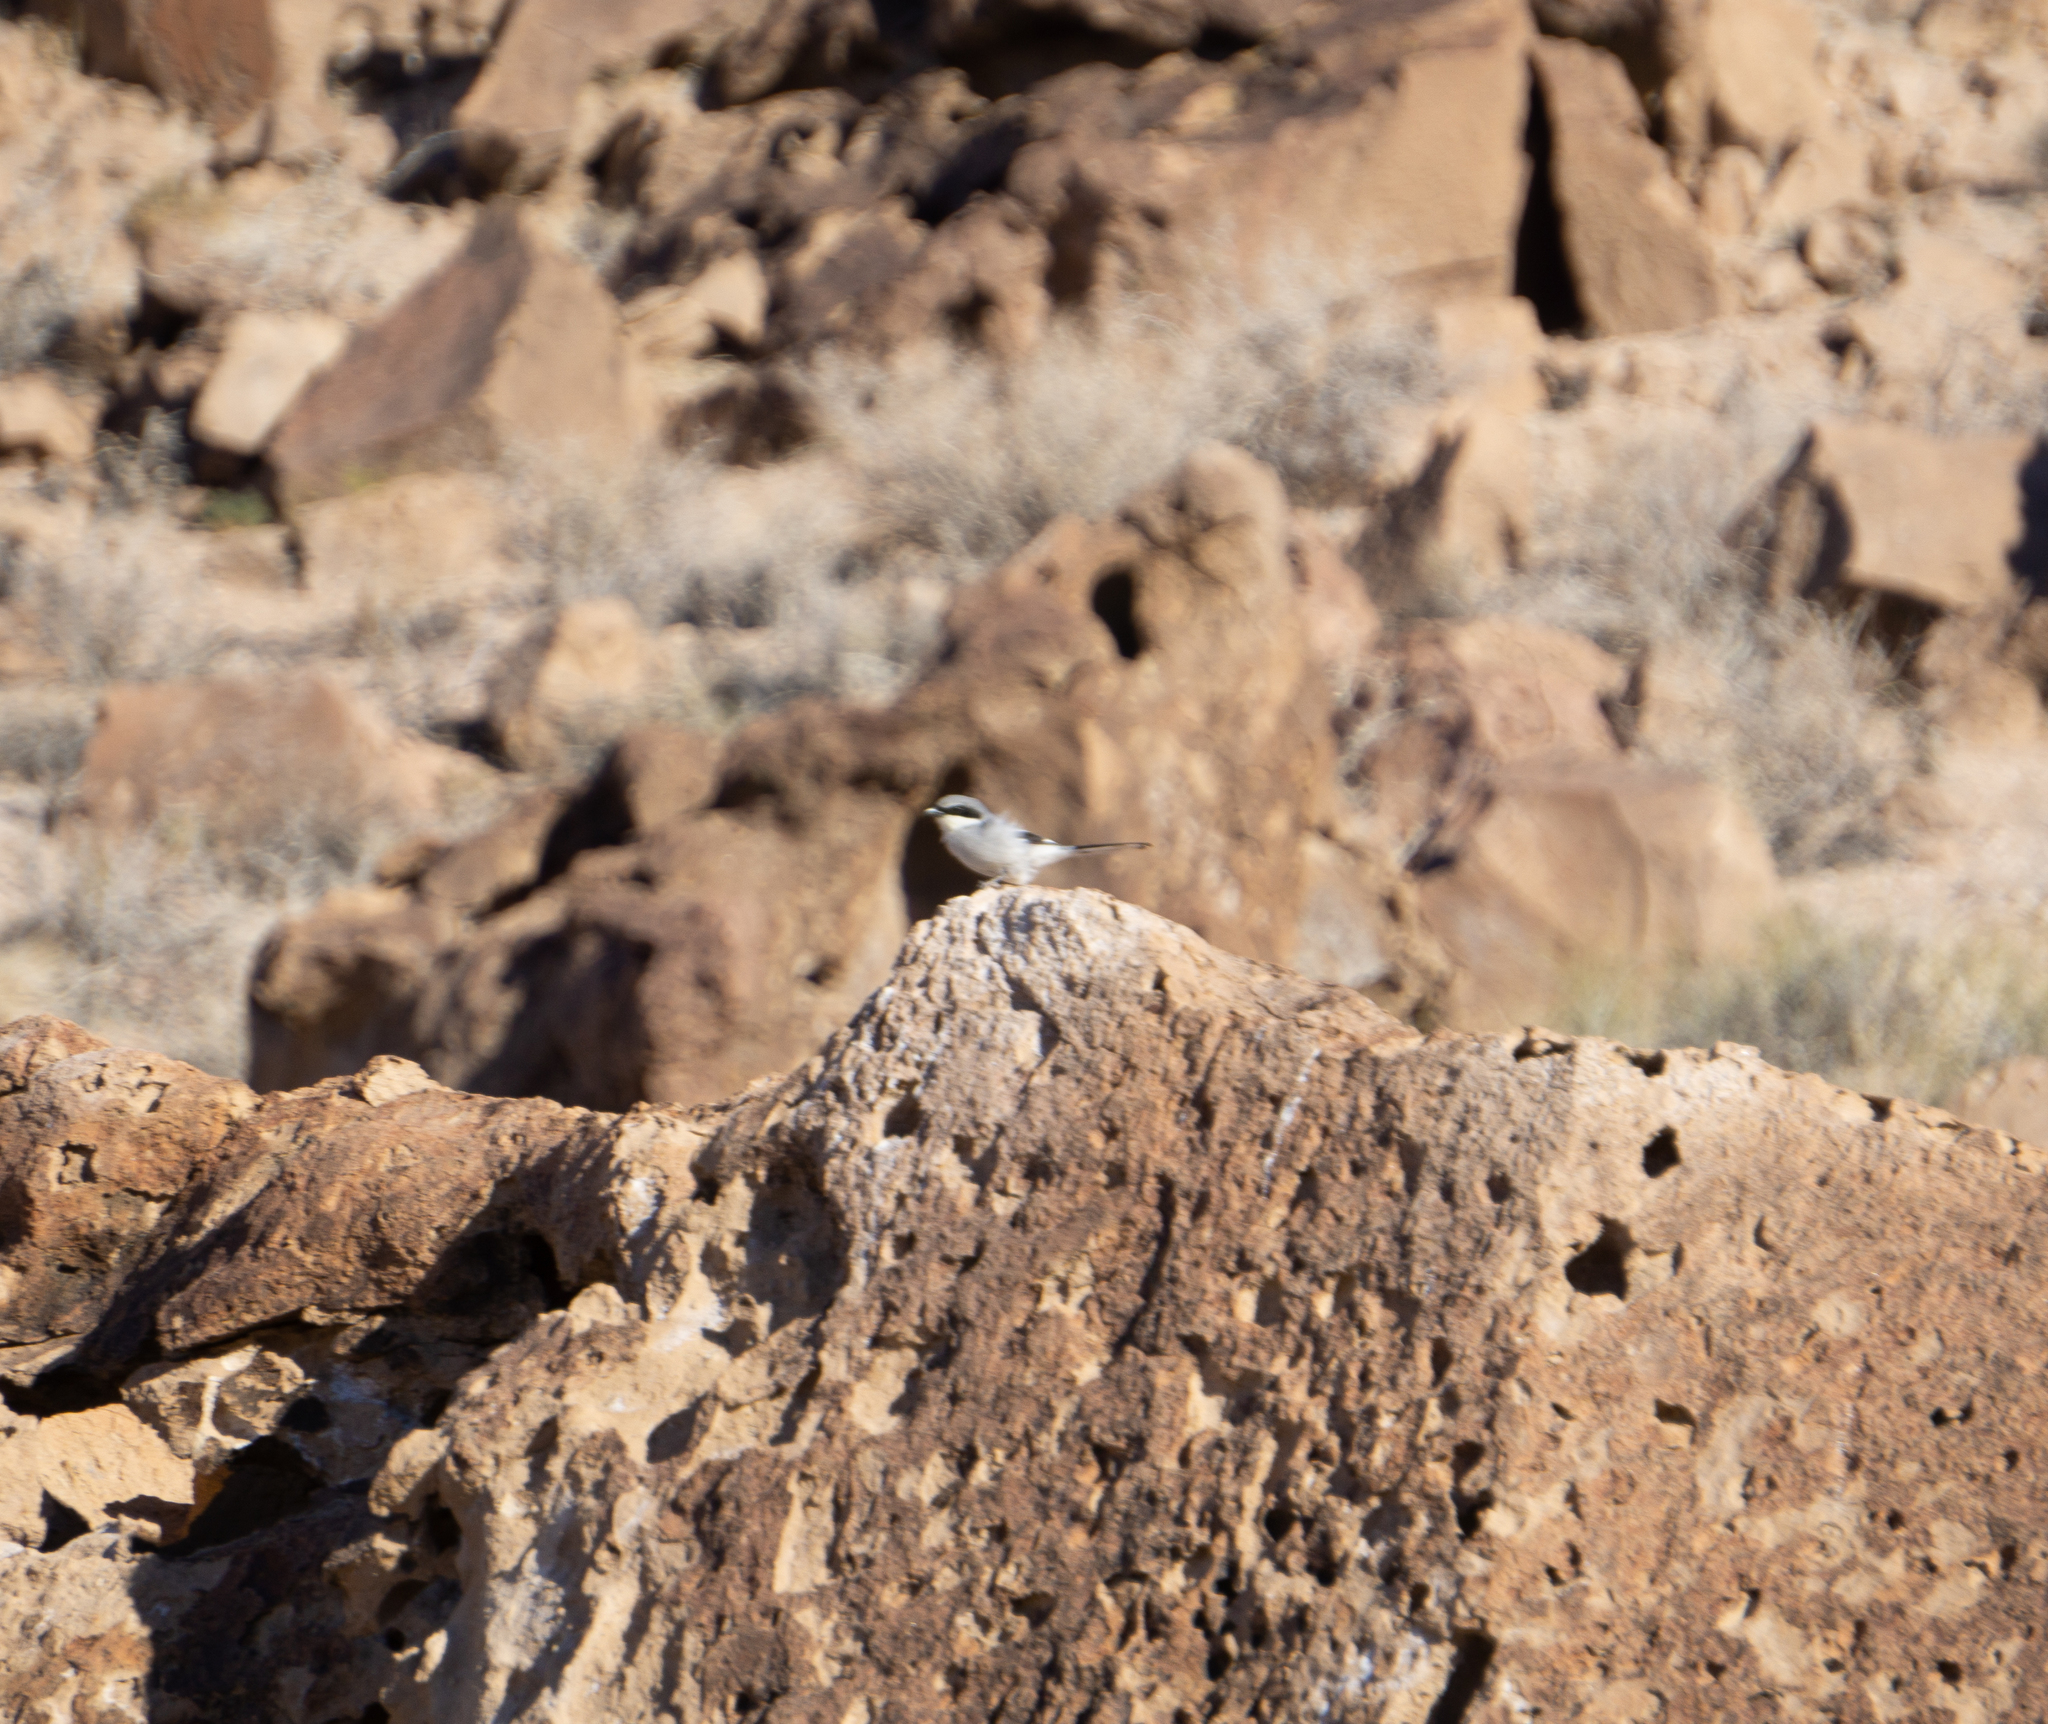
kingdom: Animalia
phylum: Chordata
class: Aves
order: Passeriformes
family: Laniidae
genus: Lanius
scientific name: Lanius ludovicianus
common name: Loggerhead shrike
